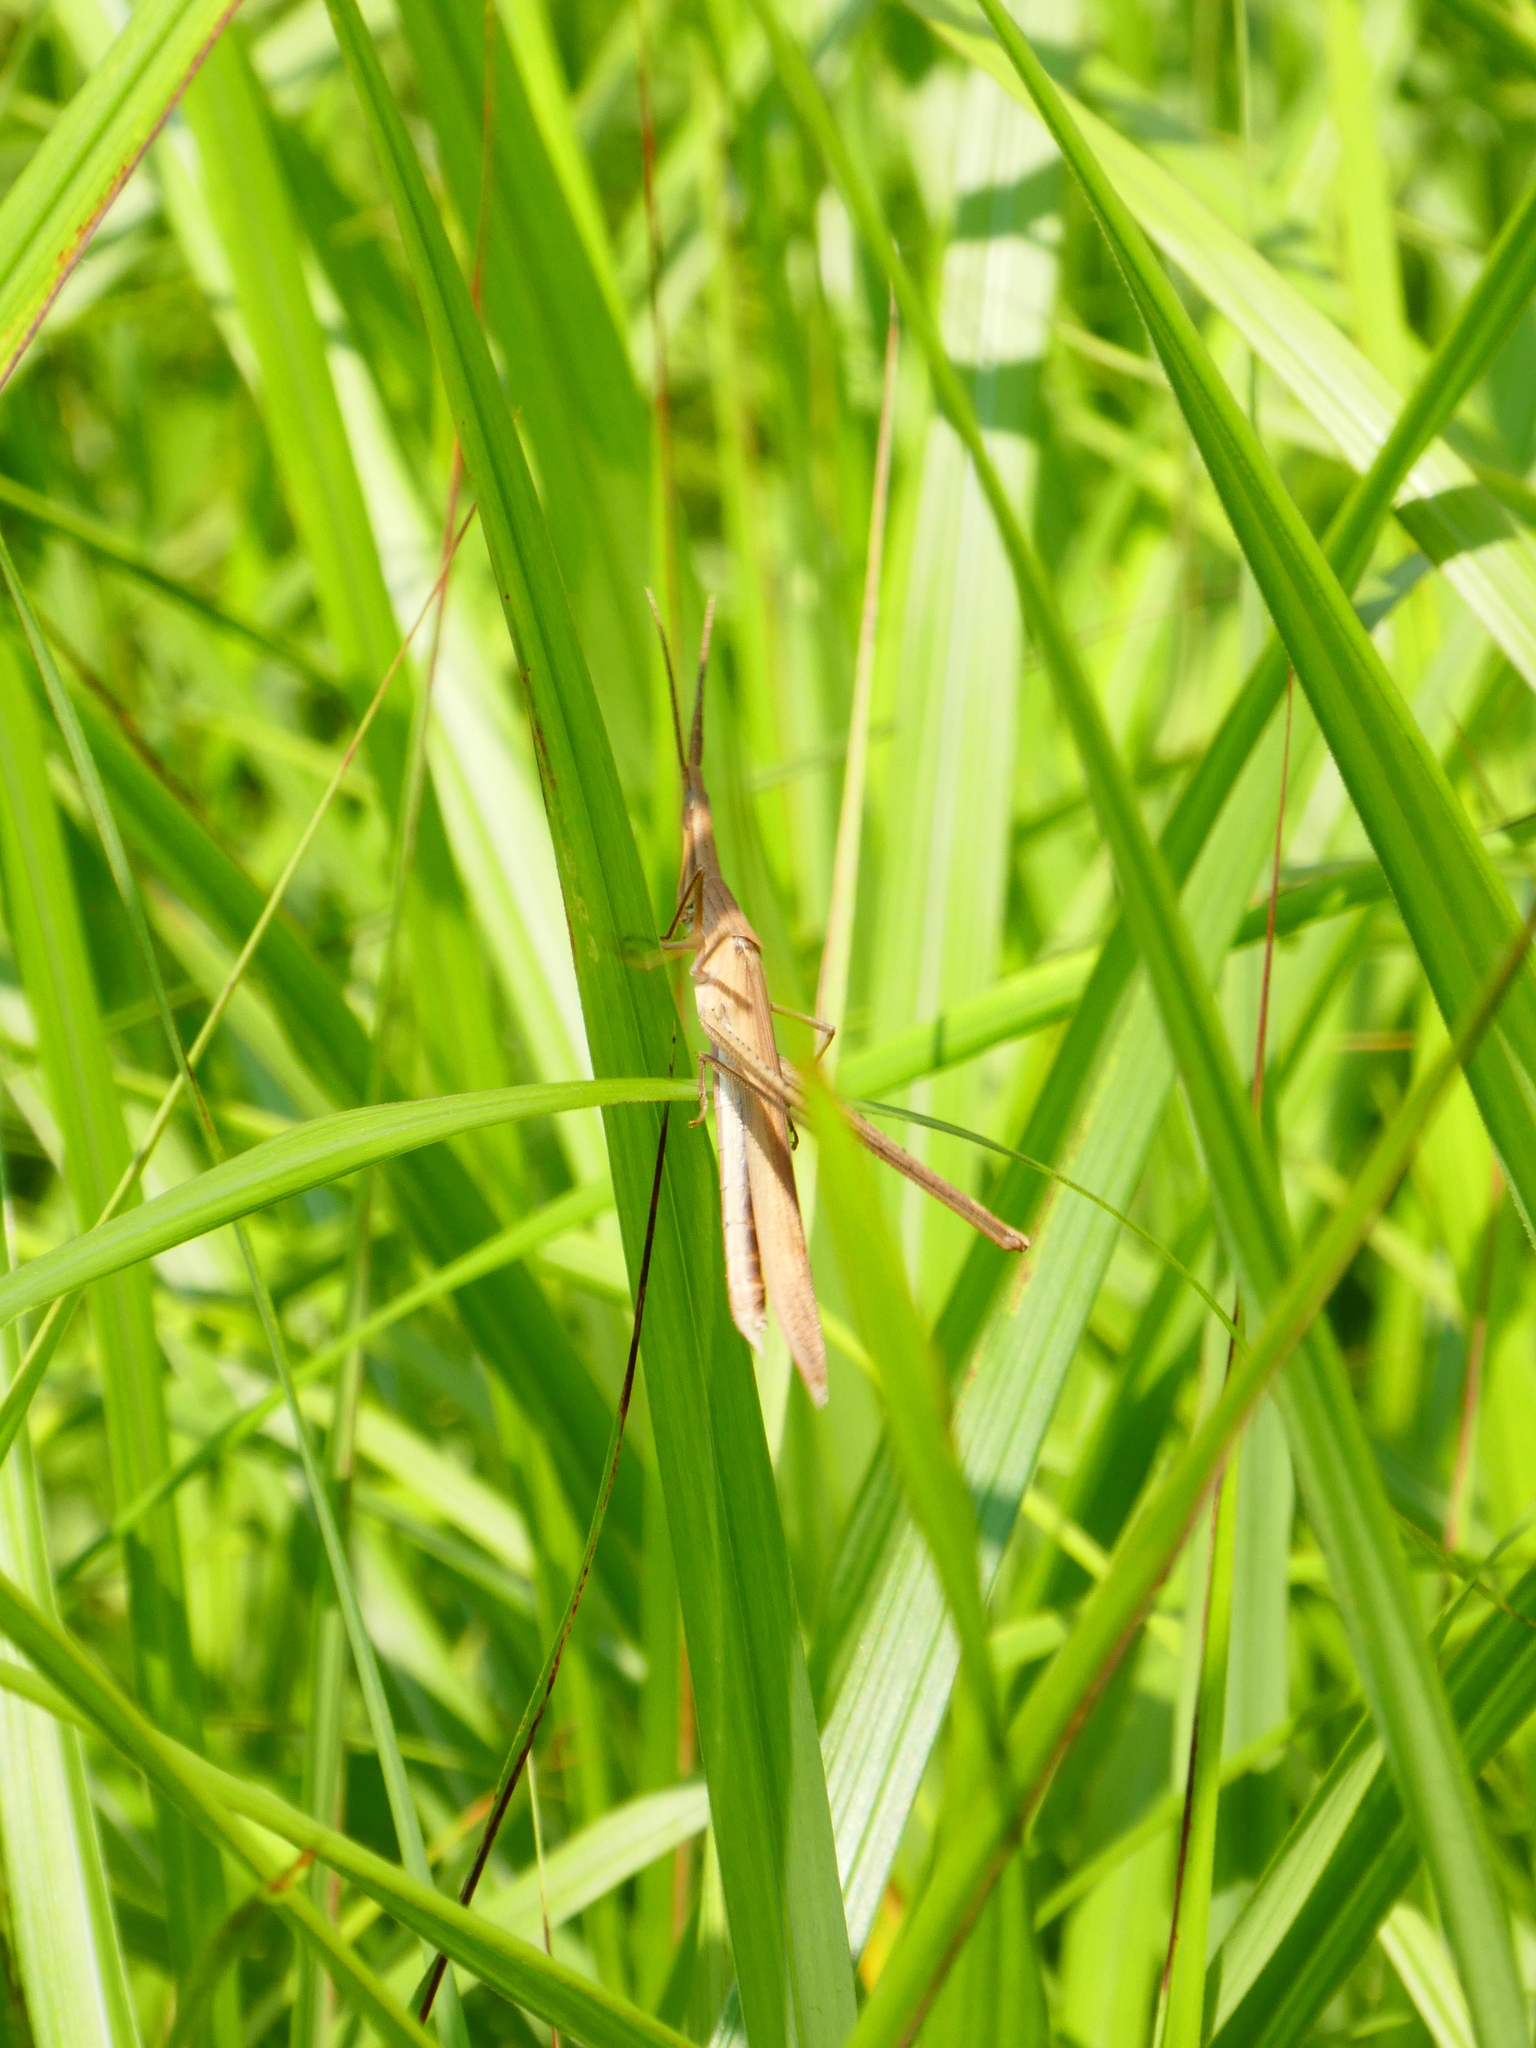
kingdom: Animalia
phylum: Arthropoda
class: Insecta
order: Orthoptera
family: Acrididae
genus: Acrida
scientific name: Acrida cinerea
